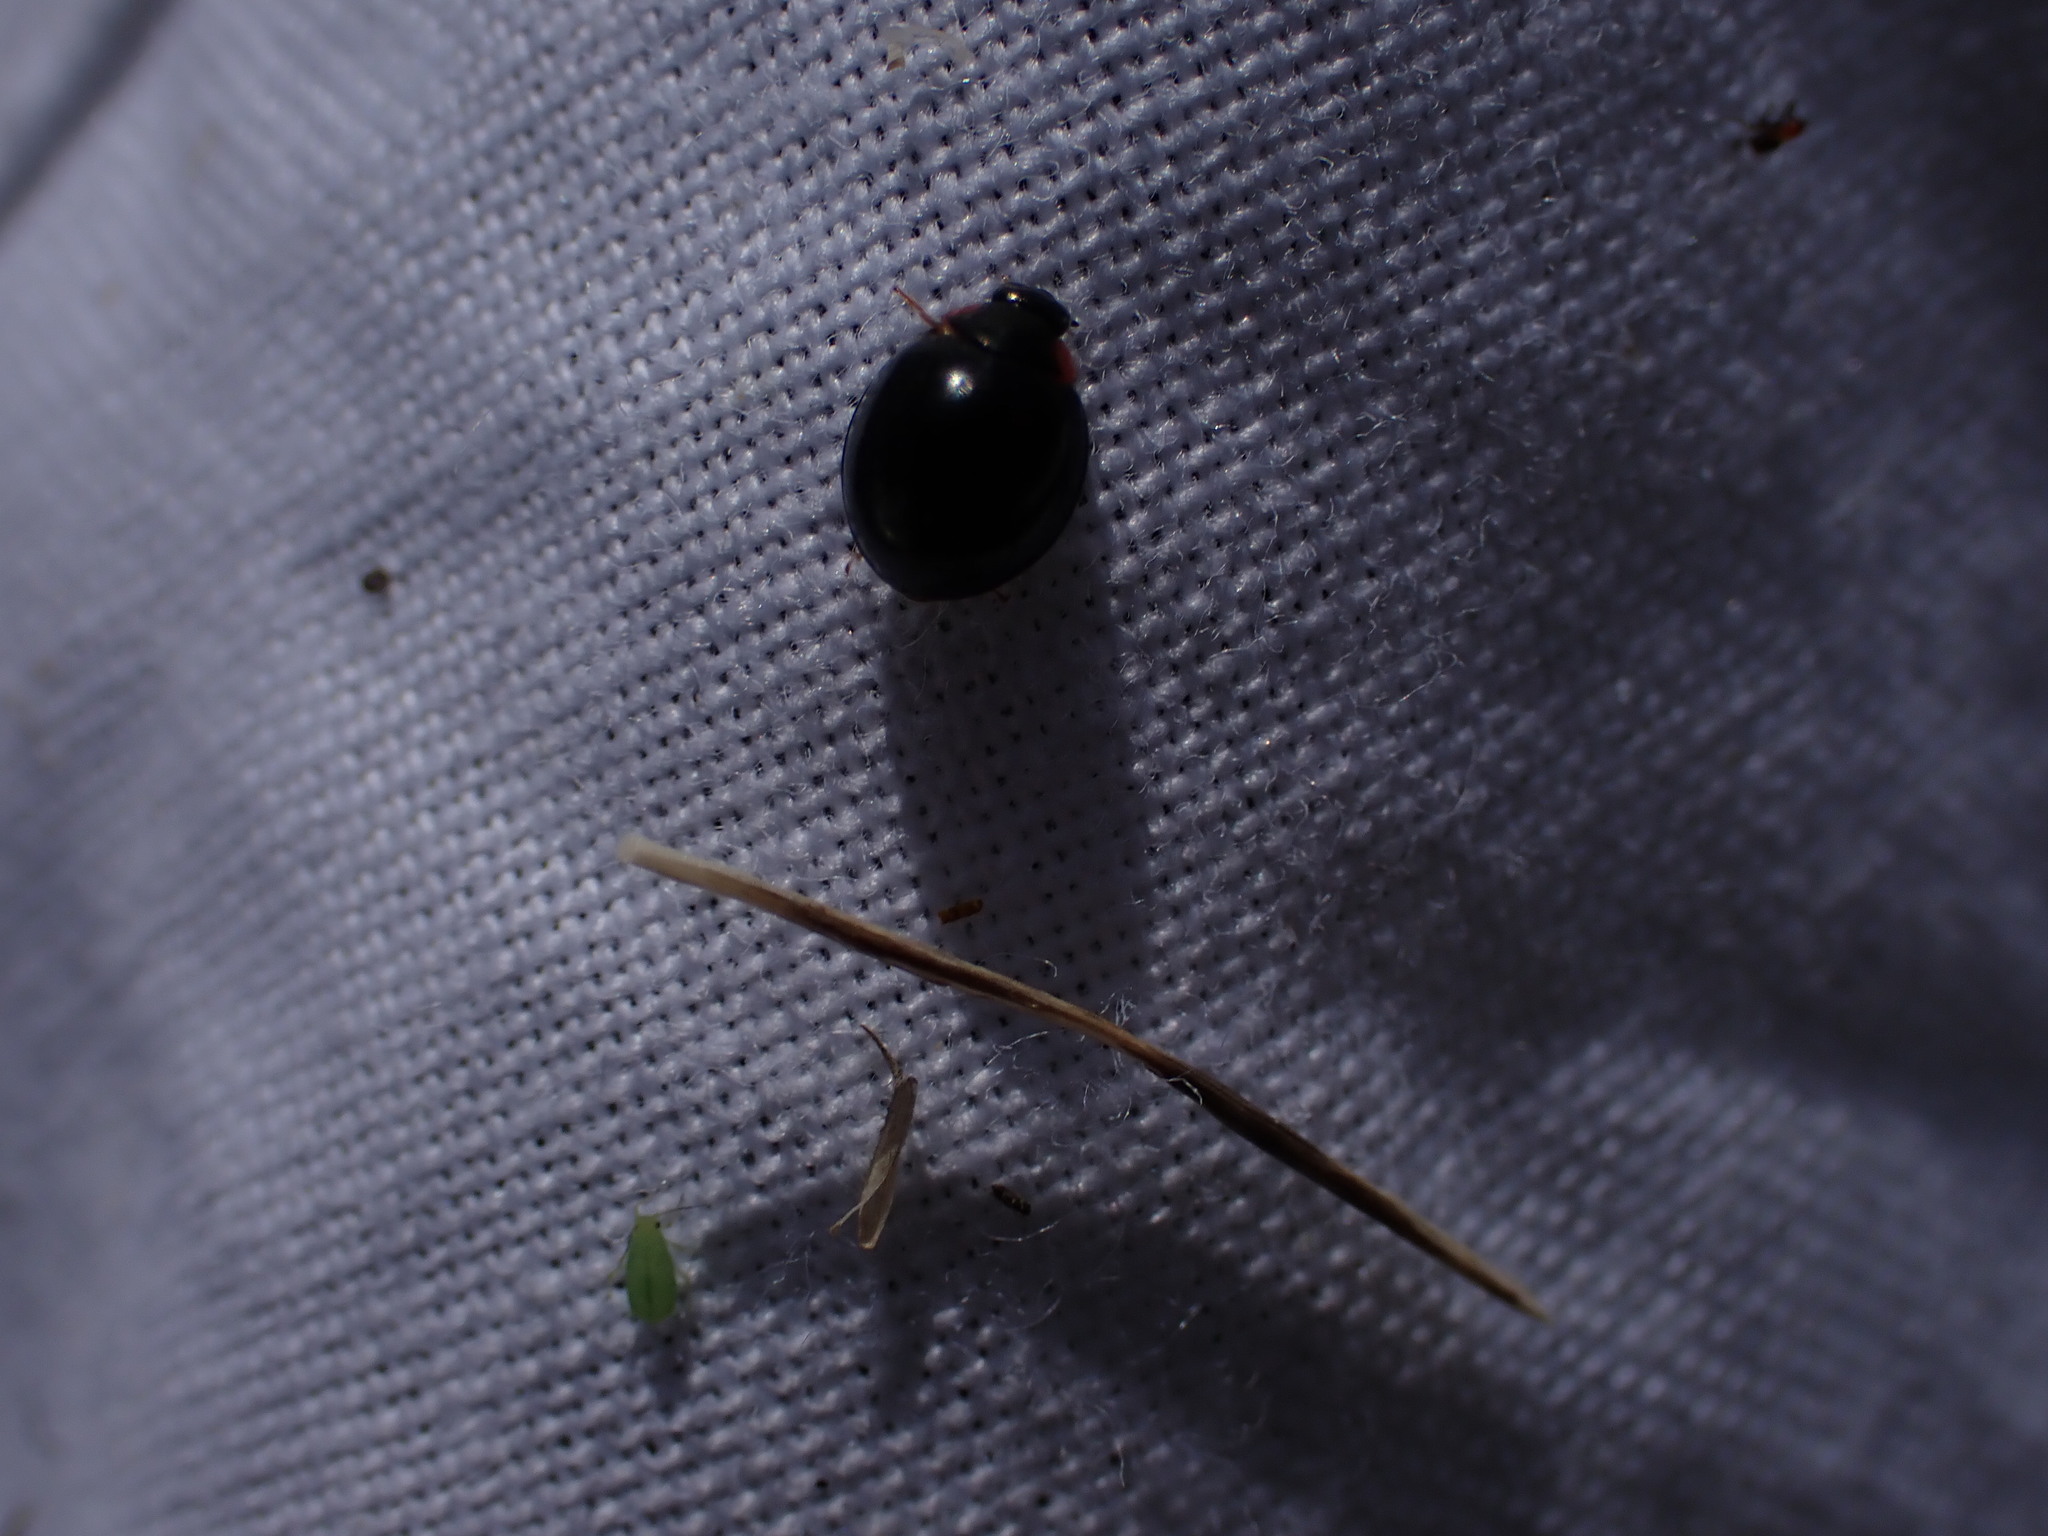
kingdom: Animalia
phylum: Arthropoda
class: Insecta
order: Coleoptera
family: Coccinellidae
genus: Parexochomus
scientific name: Parexochomus nigromaculatus
